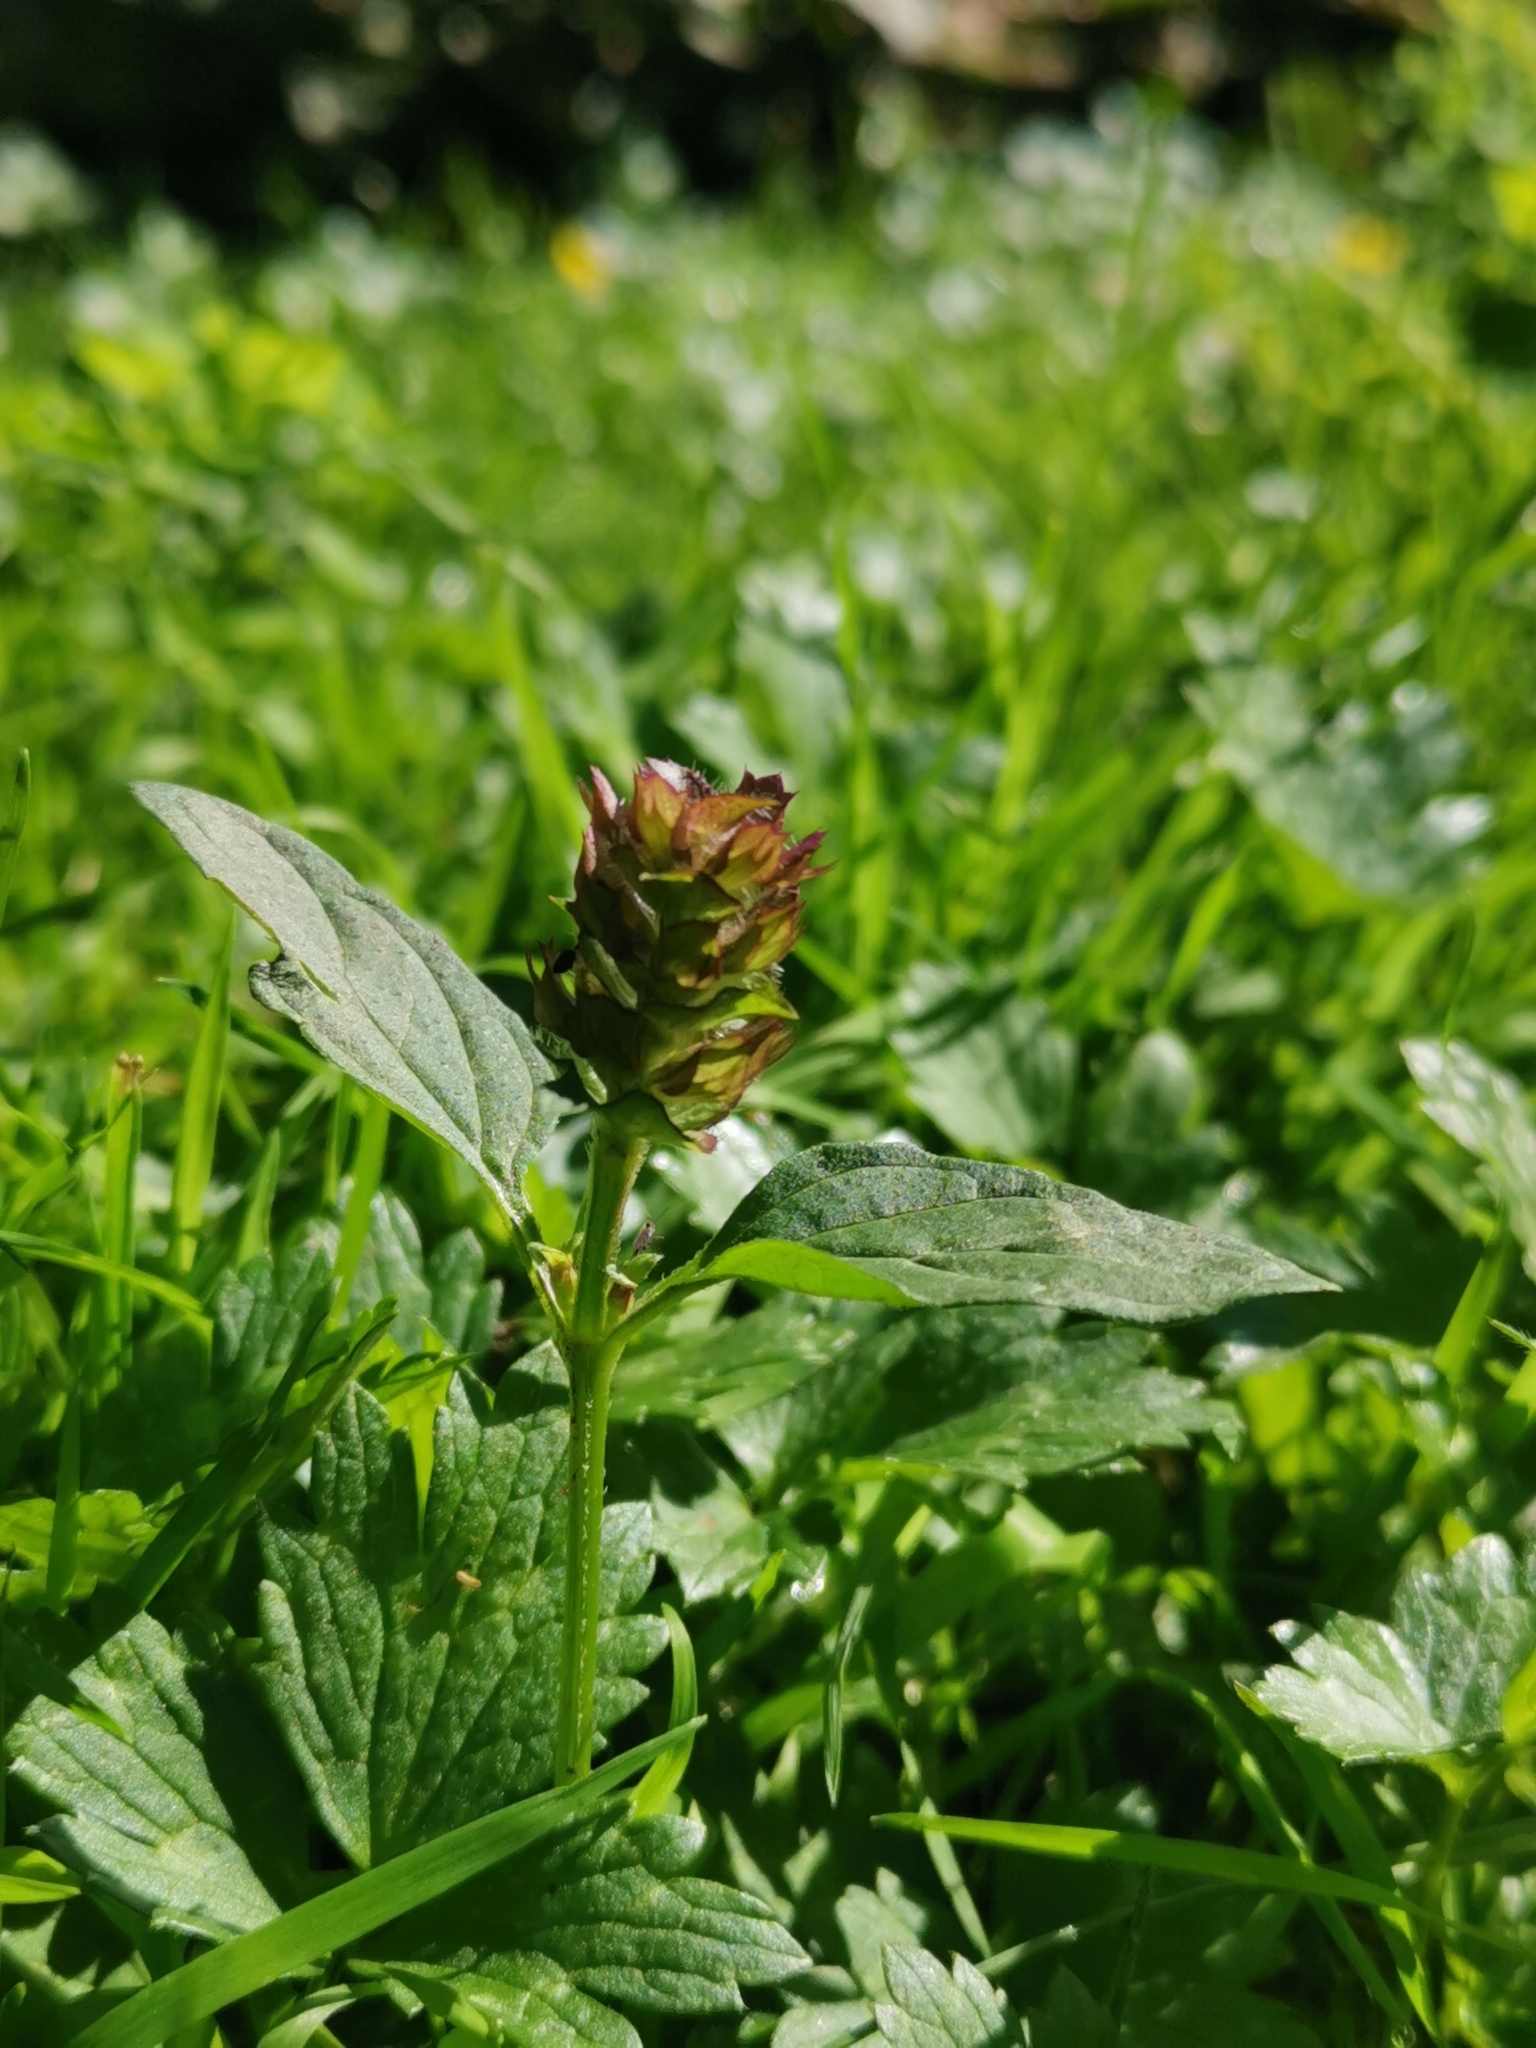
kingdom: Plantae
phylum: Tracheophyta
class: Magnoliopsida
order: Lamiales
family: Lamiaceae
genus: Prunella
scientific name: Prunella vulgaris
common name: Heal-all
